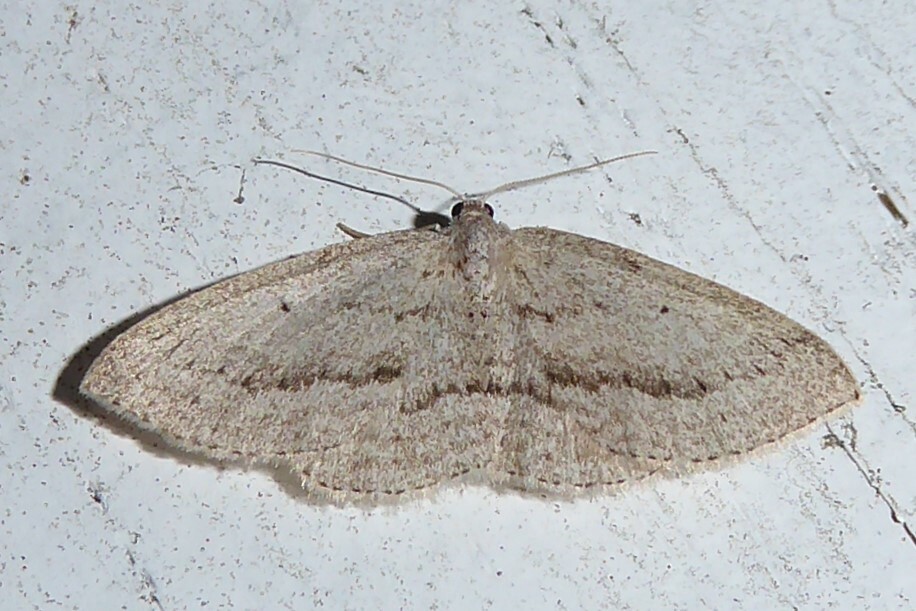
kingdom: Animalia
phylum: Arthropoda
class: Insecta
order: Lepidoptera
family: Geometridae
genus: Poecilasthena
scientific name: Poecilasthena schistaria
